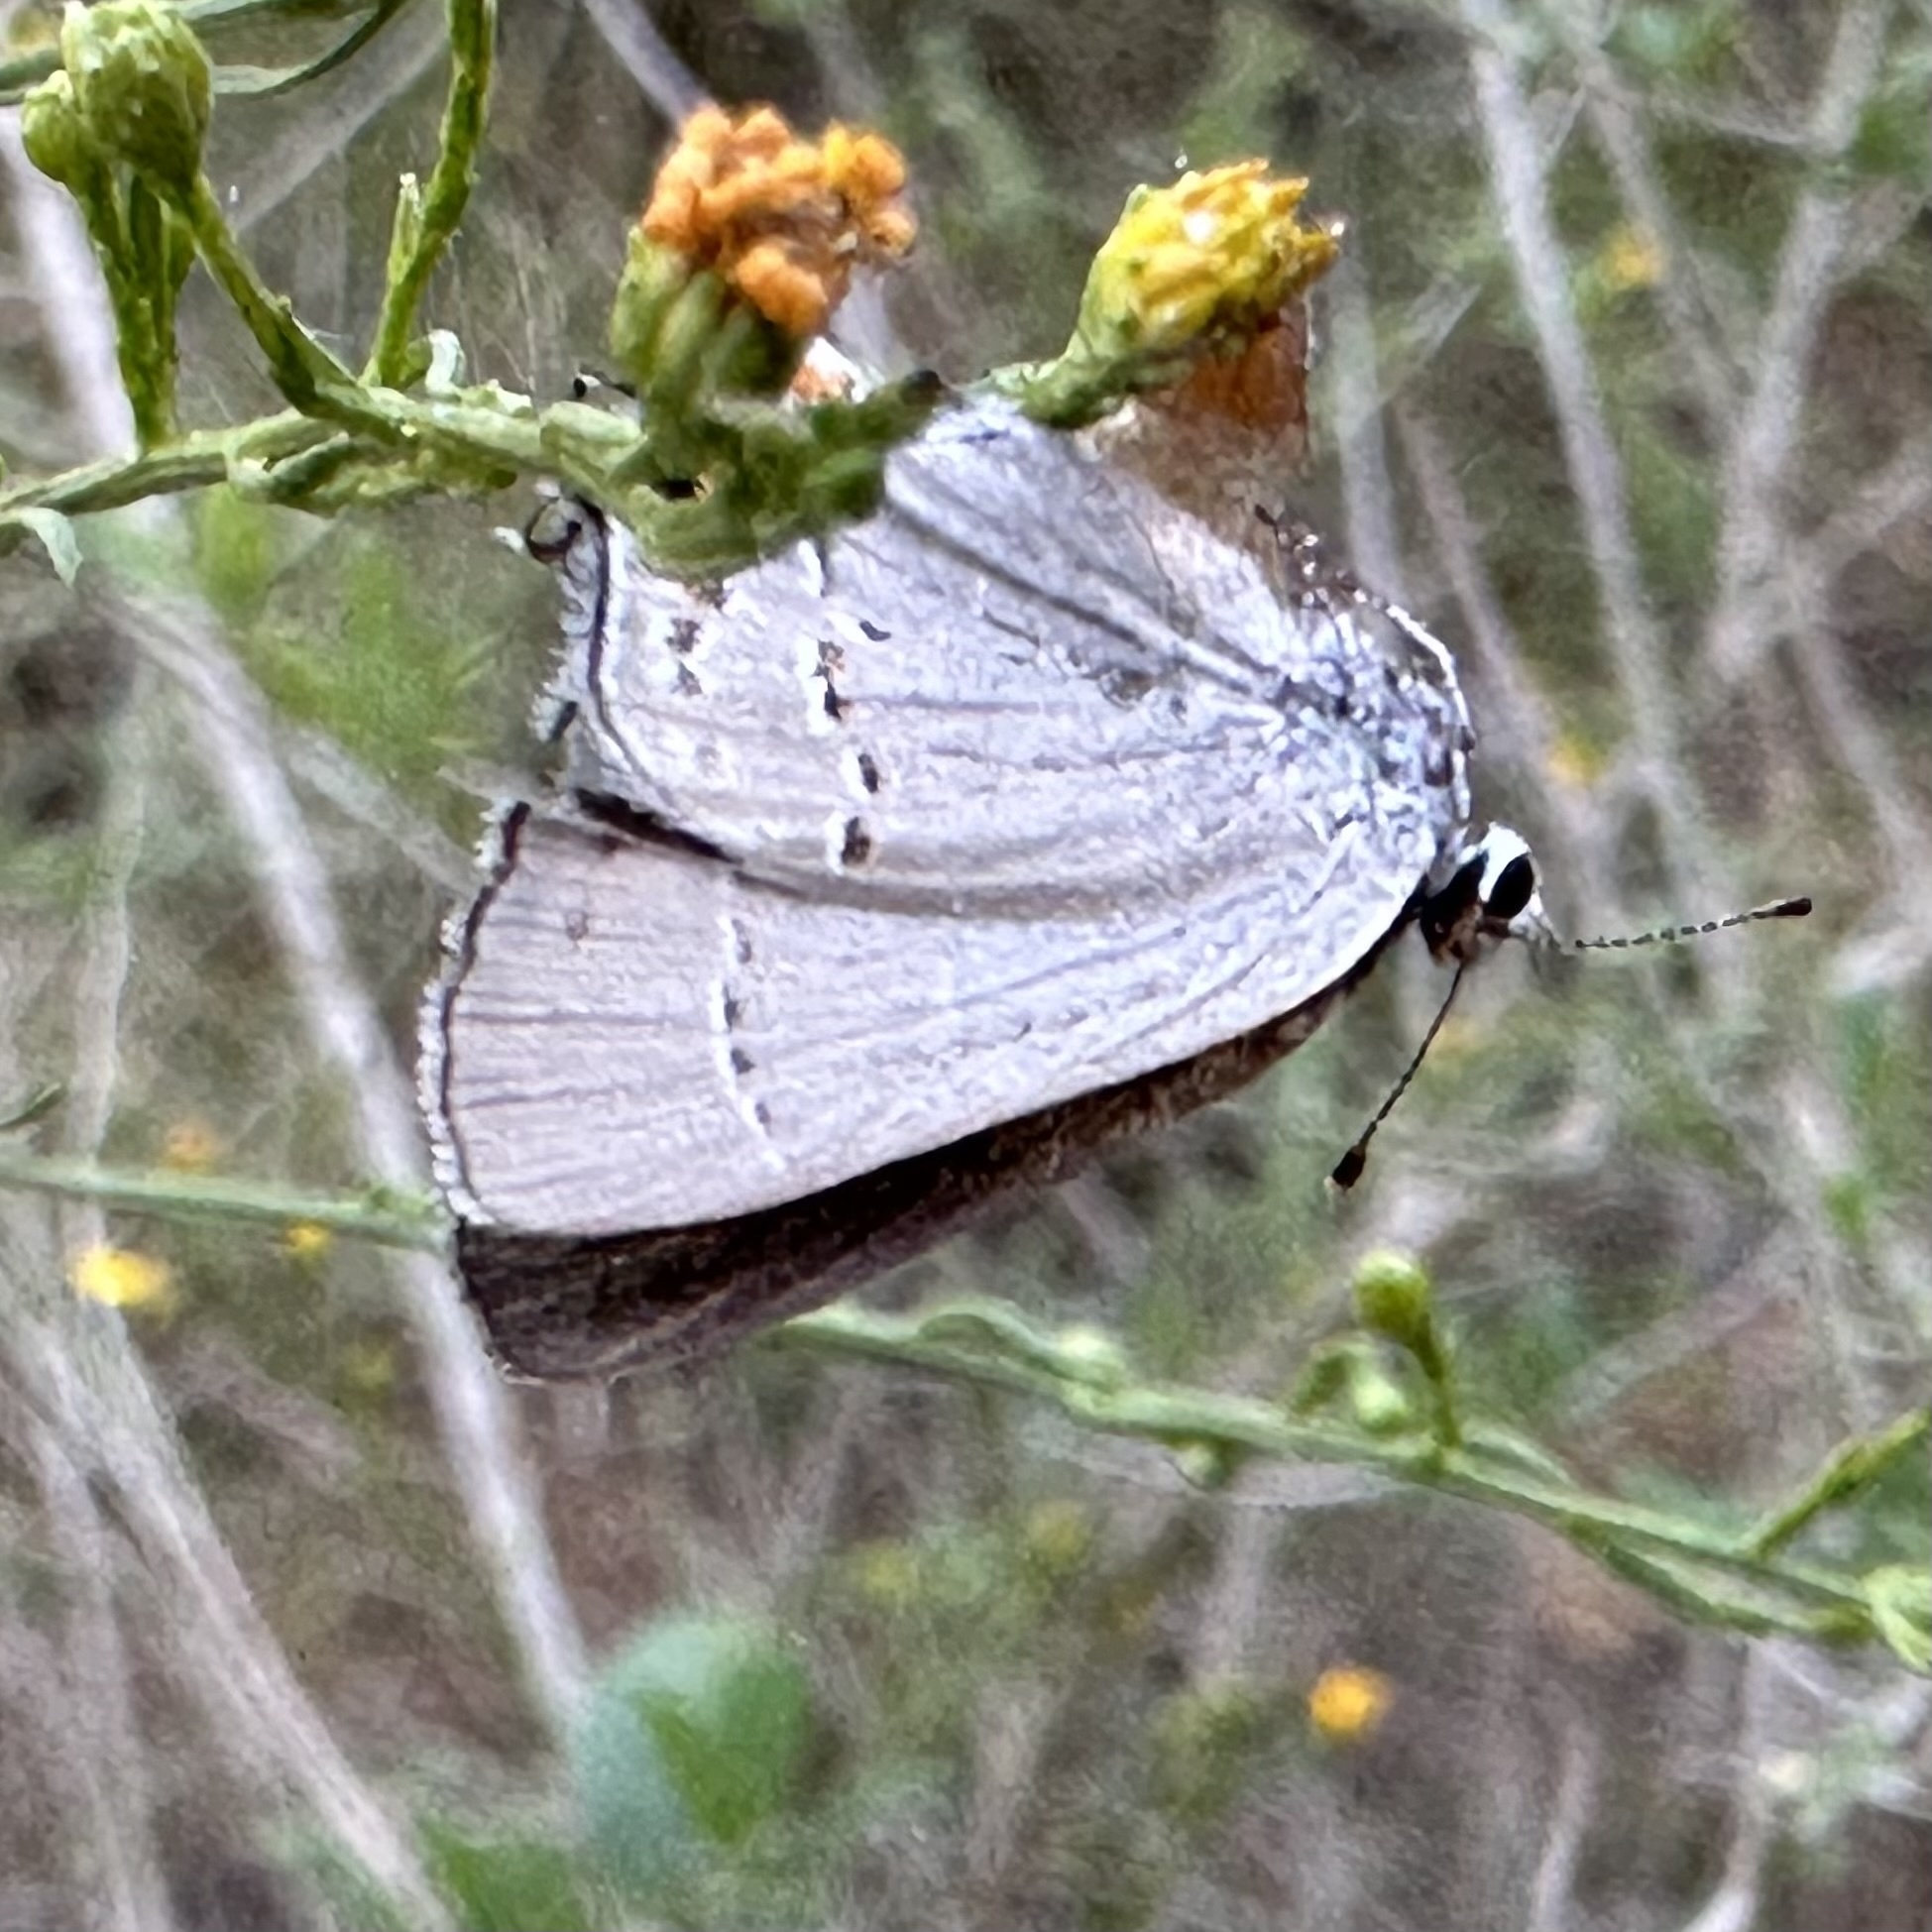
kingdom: Animalia
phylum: Arthropoda
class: Insecta
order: Lepidoptera
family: Lycaenidae
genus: Strymon
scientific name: Strymon melinus
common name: Gray hairstreak
